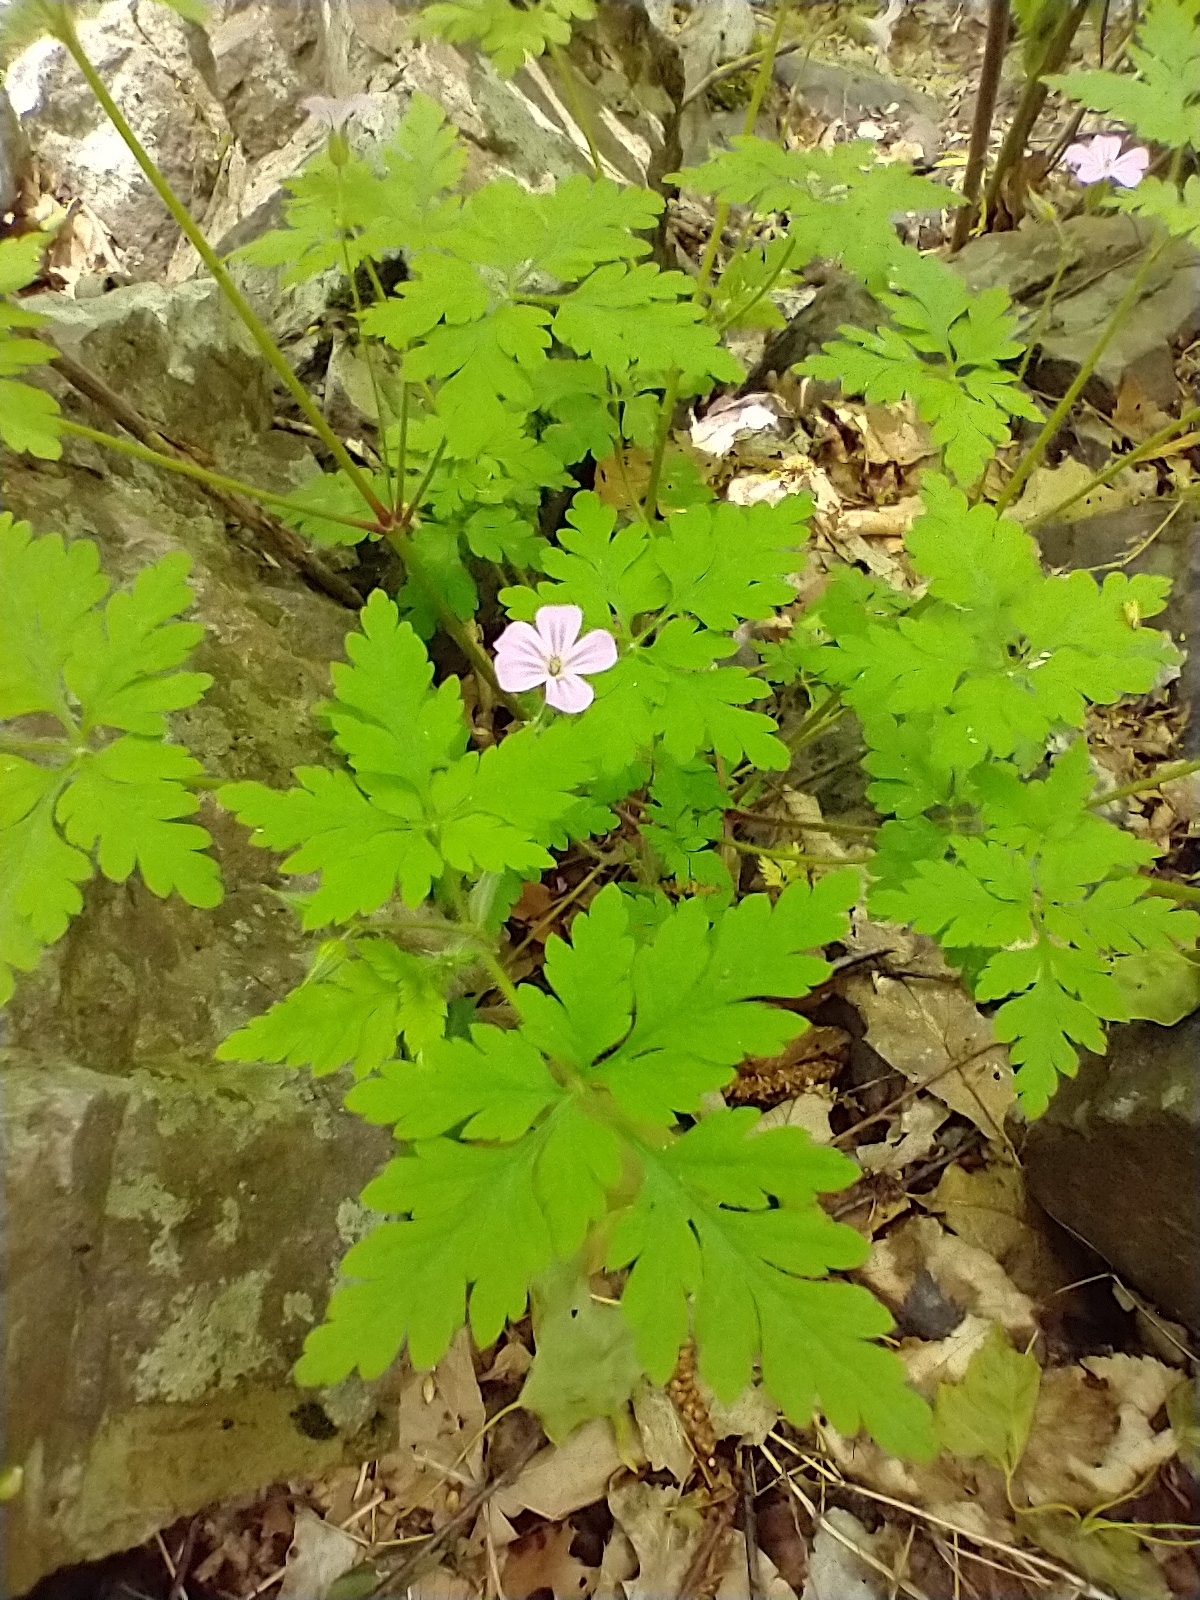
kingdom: Plantae
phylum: Tracheophyta
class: Magnoliopsida
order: Geraniales
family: Geraniaceae
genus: Geranium
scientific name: Geranium robertianum
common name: Herb-robert
